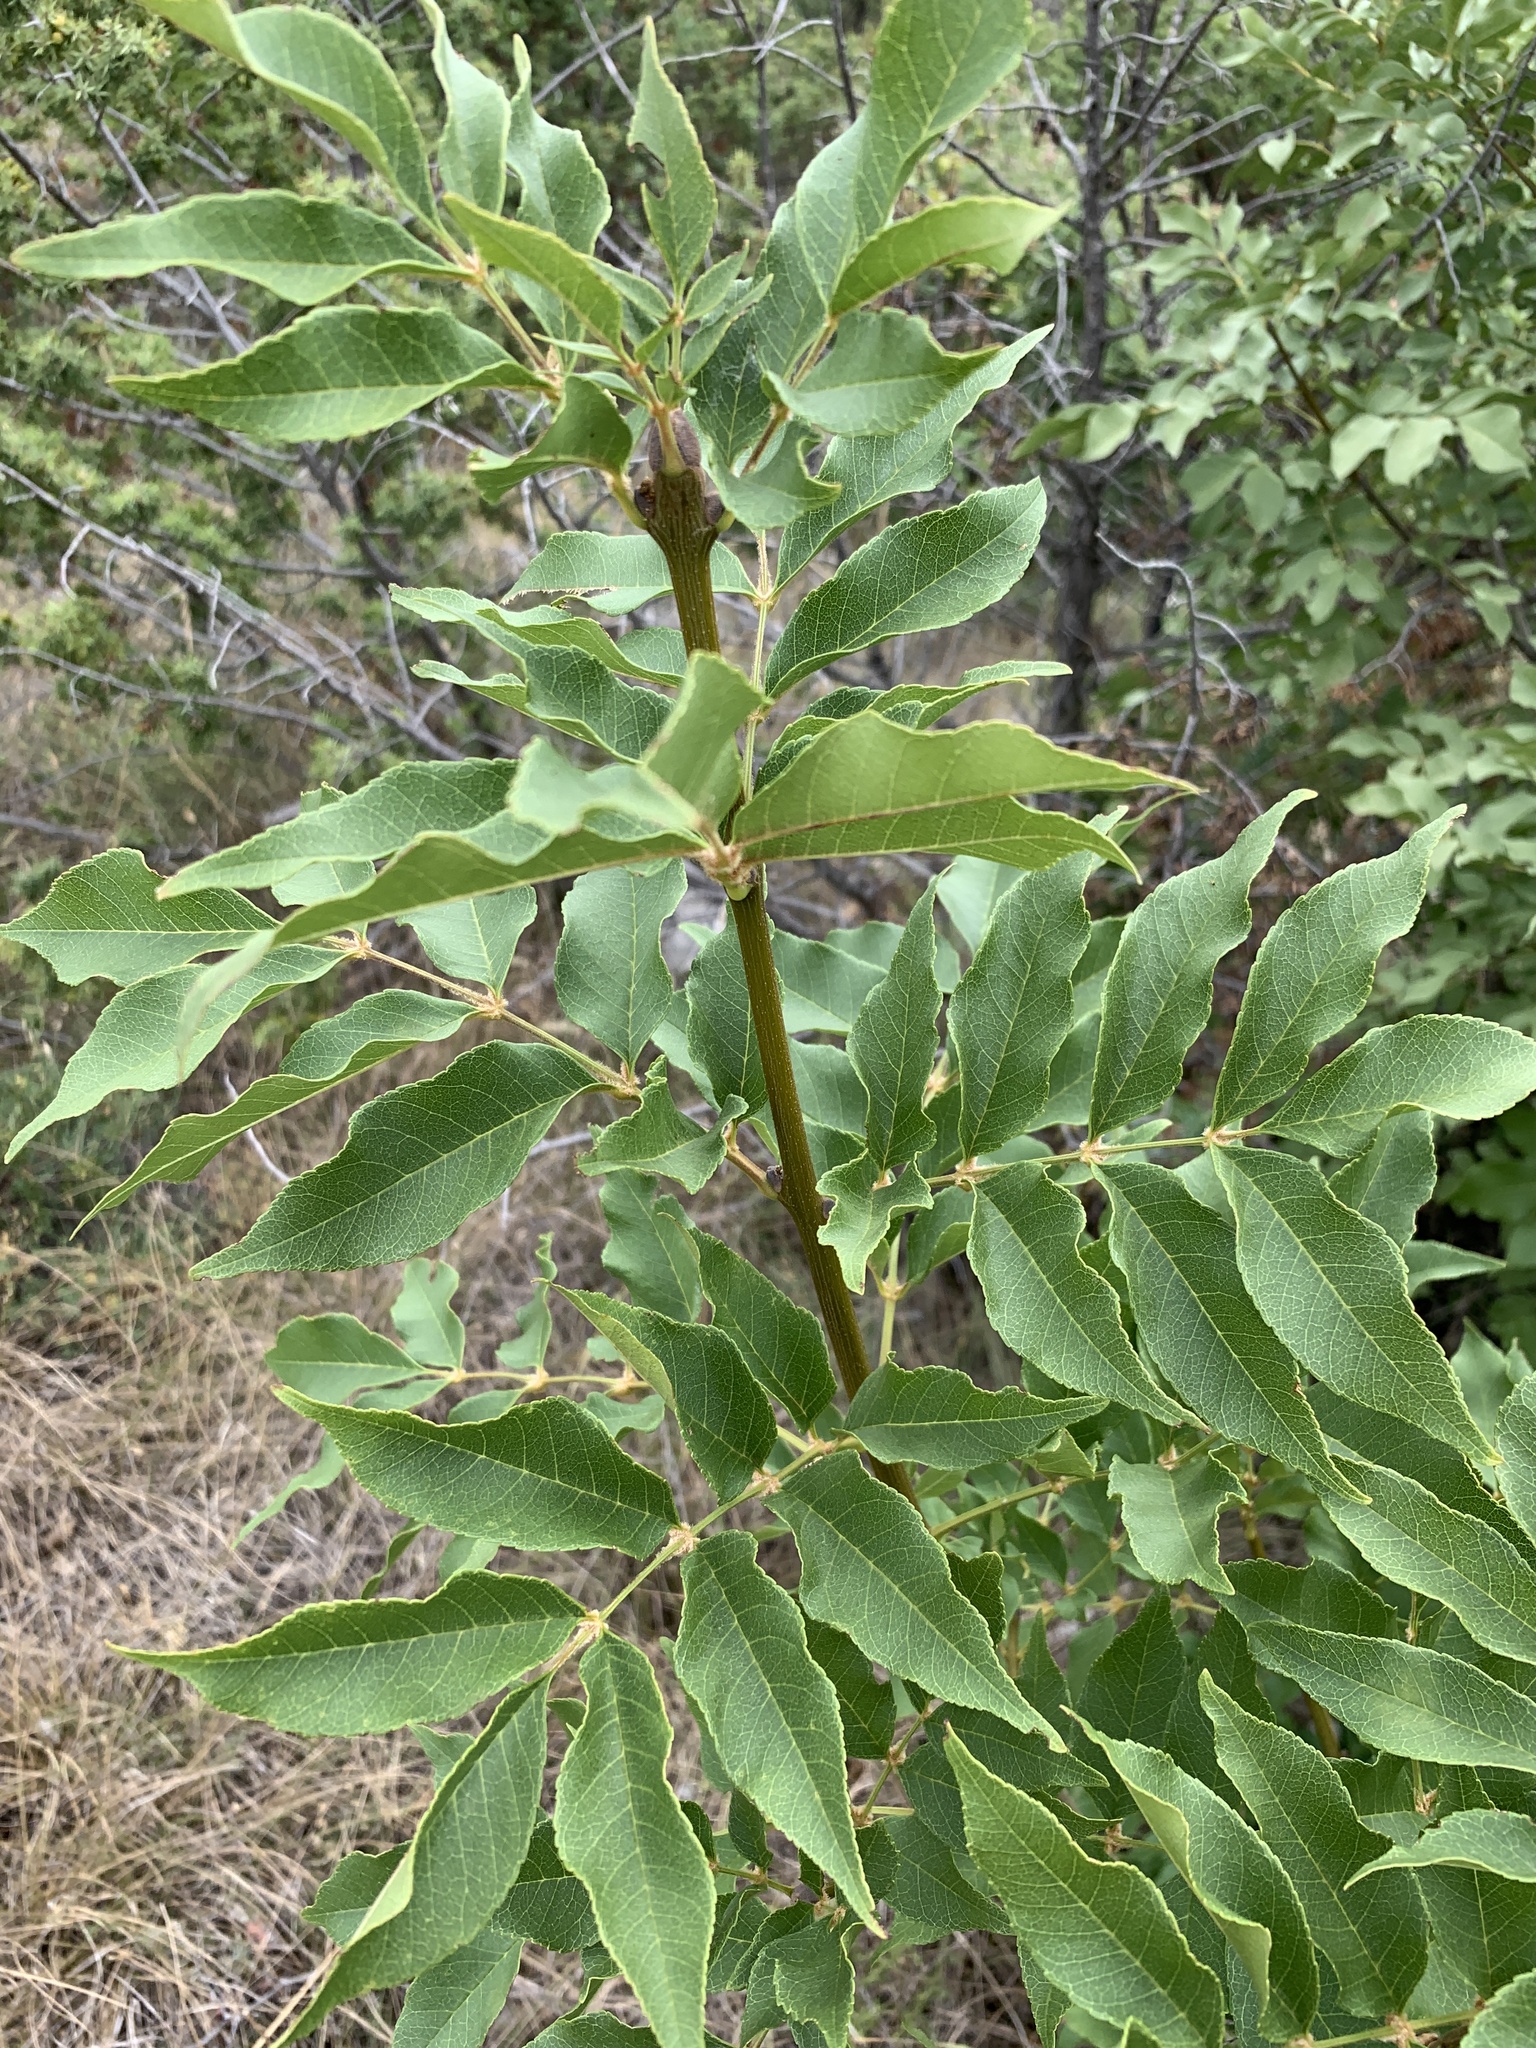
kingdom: Plantae
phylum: Tracheophyta
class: Magnoliopsida
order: Lamiales
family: Oleaceae
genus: Fraxinus
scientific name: Fraxinus ornus
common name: Manna ash
